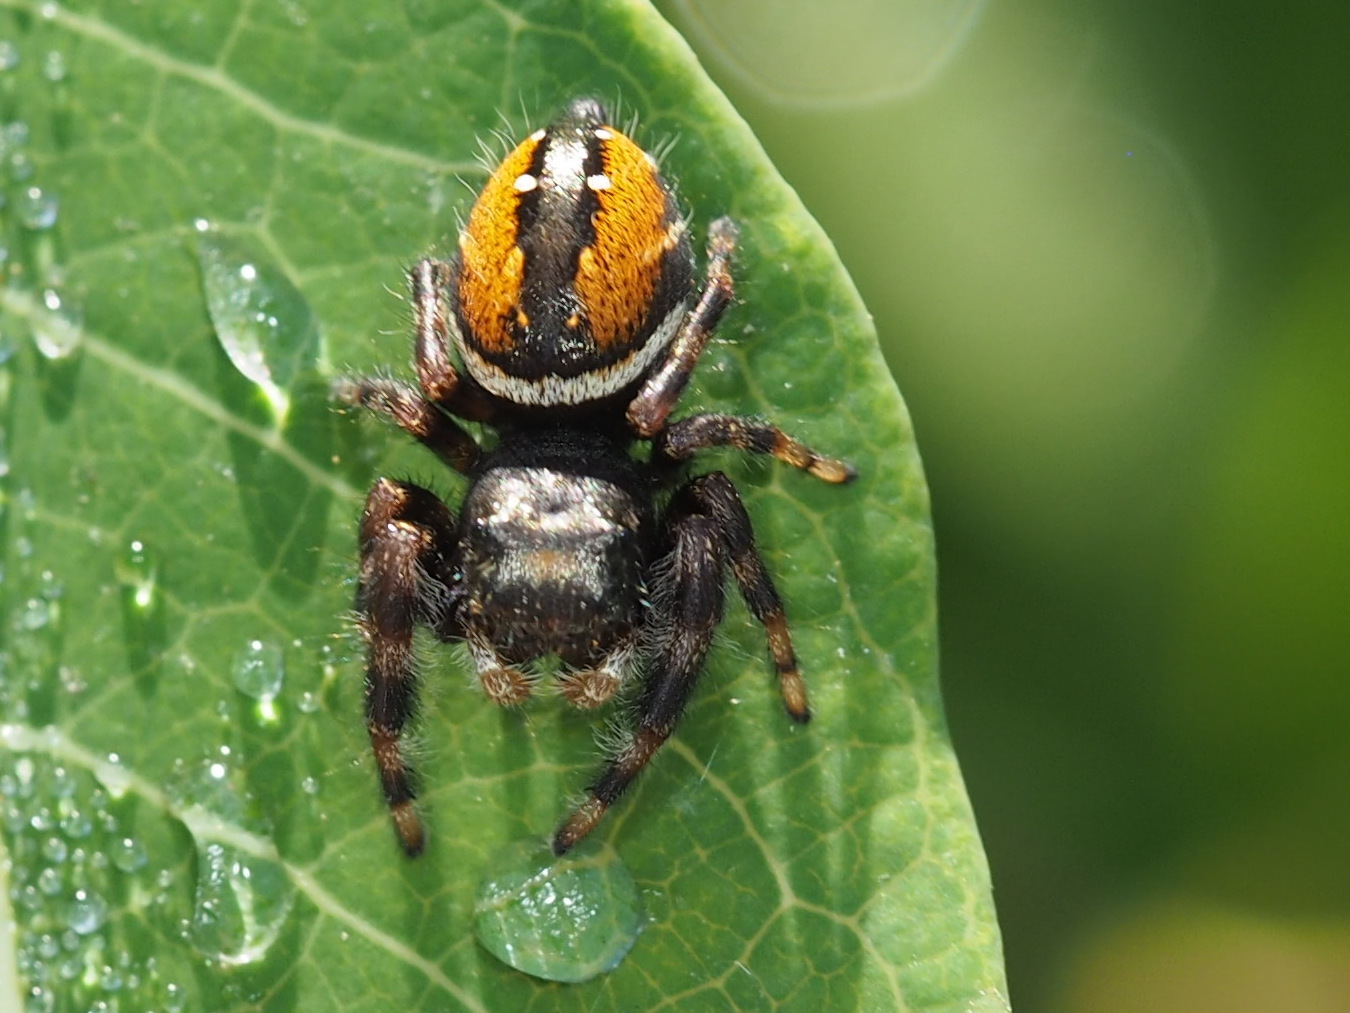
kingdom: Animalia
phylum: Arthropoda
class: Arachnida
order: Araneae
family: Salticidae
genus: Phidippus
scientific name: Phidippus clarus
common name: Brilliant jumping spider
